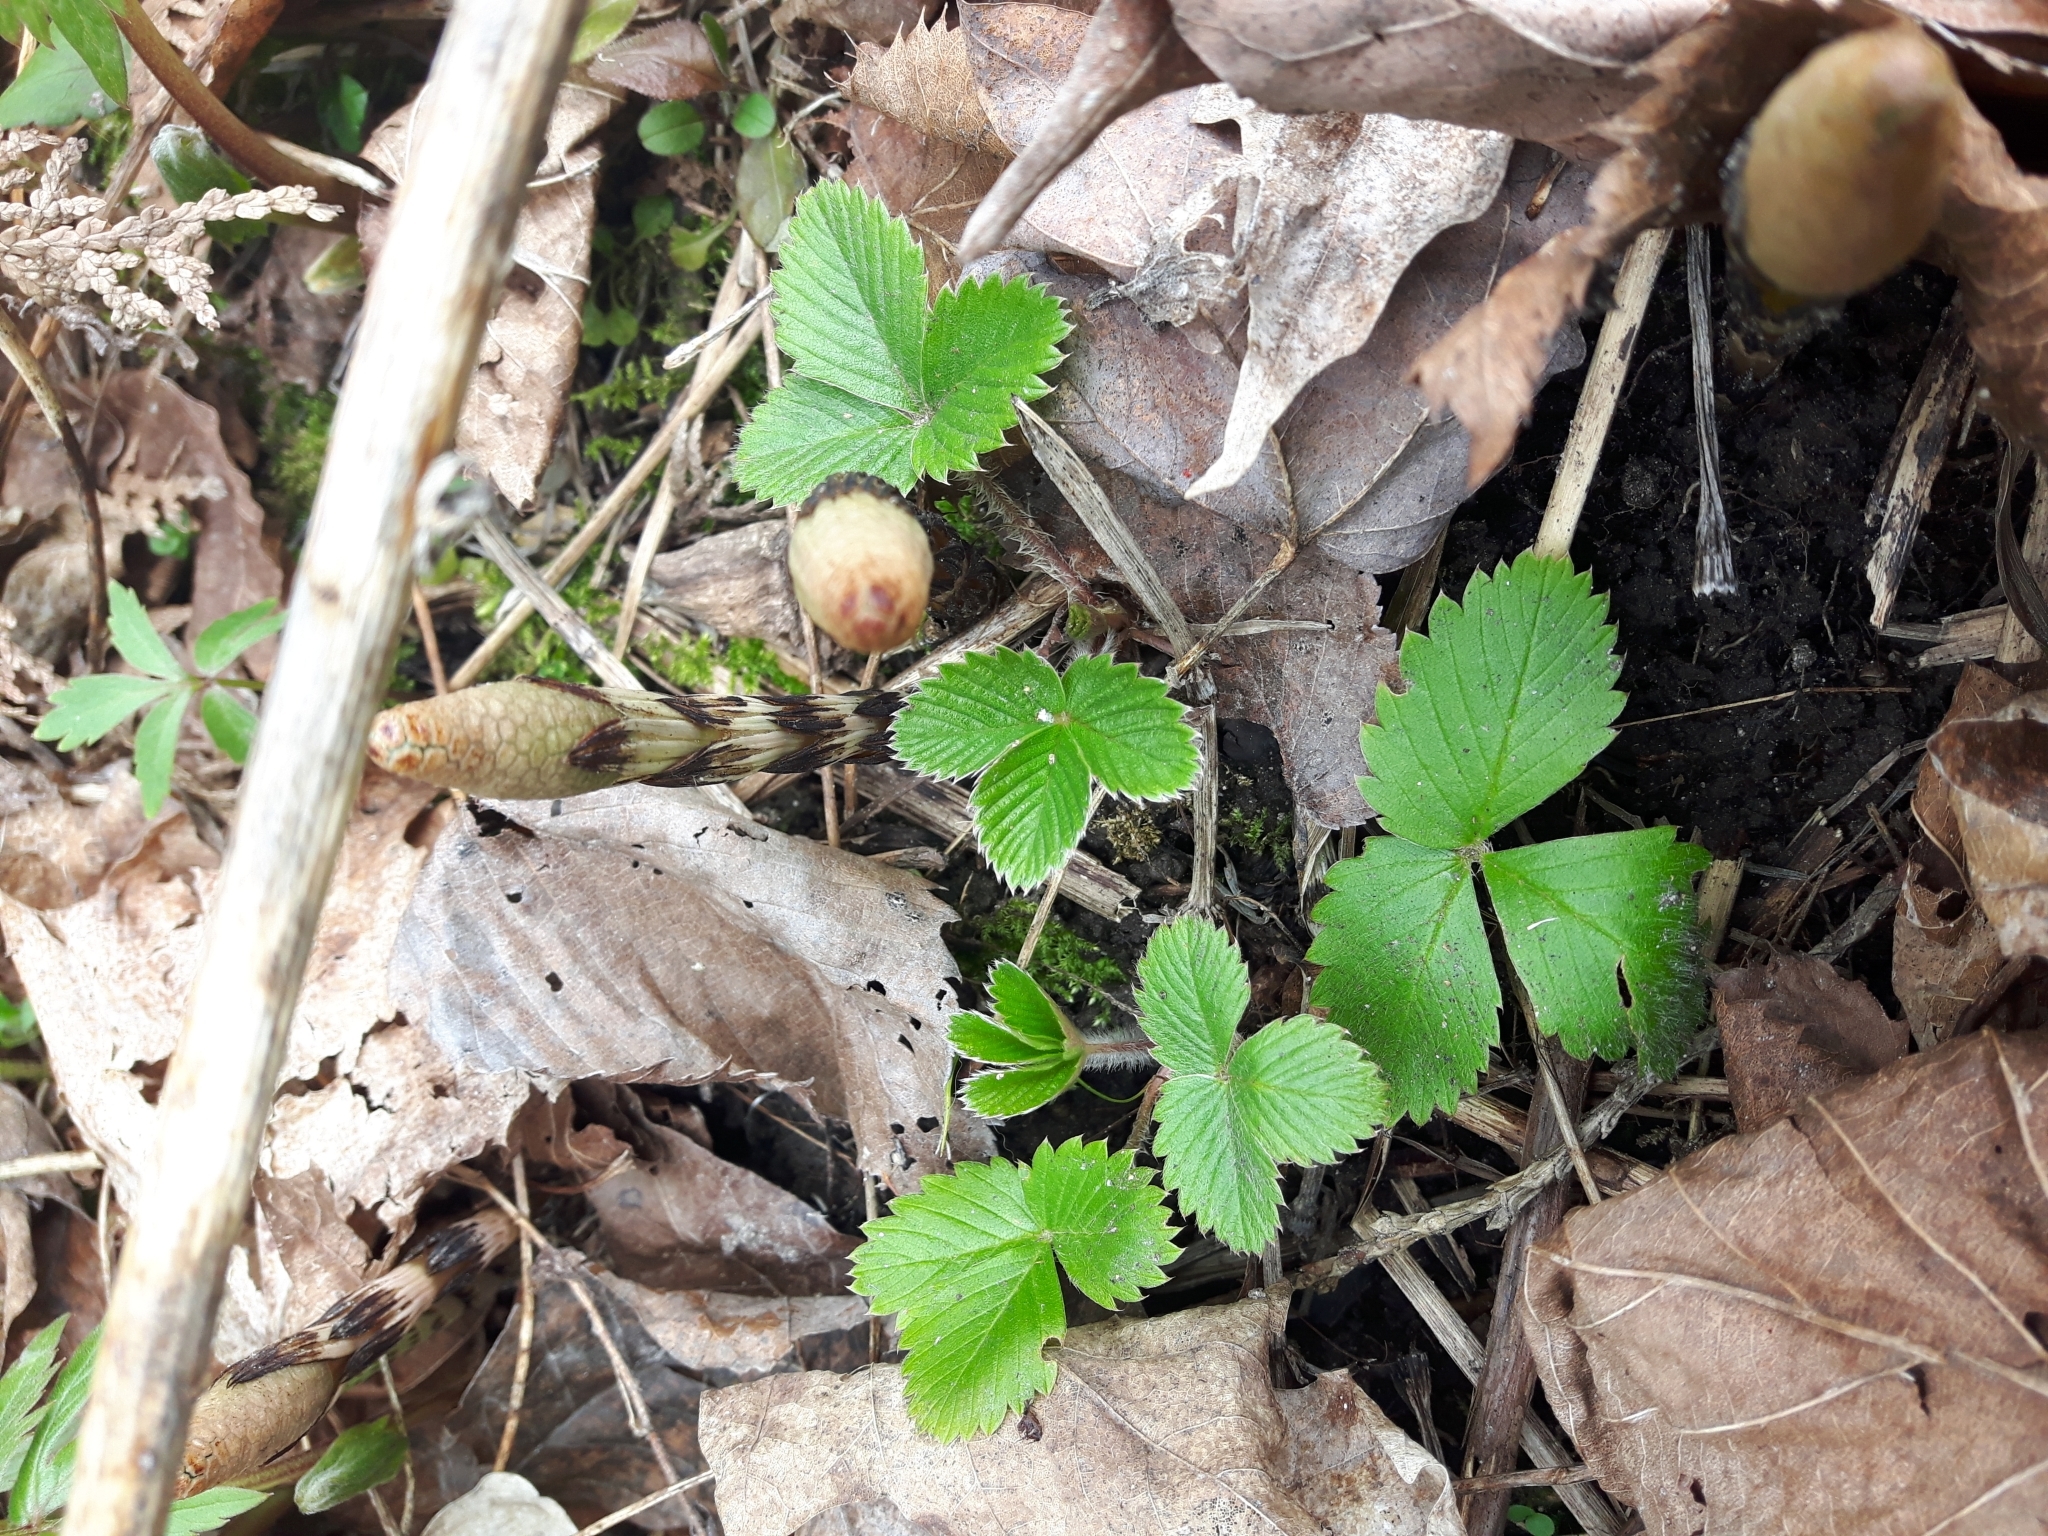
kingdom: Plantae
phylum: Tracheophyta
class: Magnoliopsida
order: Rosales
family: Rosaceae
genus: Fragaria
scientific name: Fragaria vesca
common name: Wild strawberry
